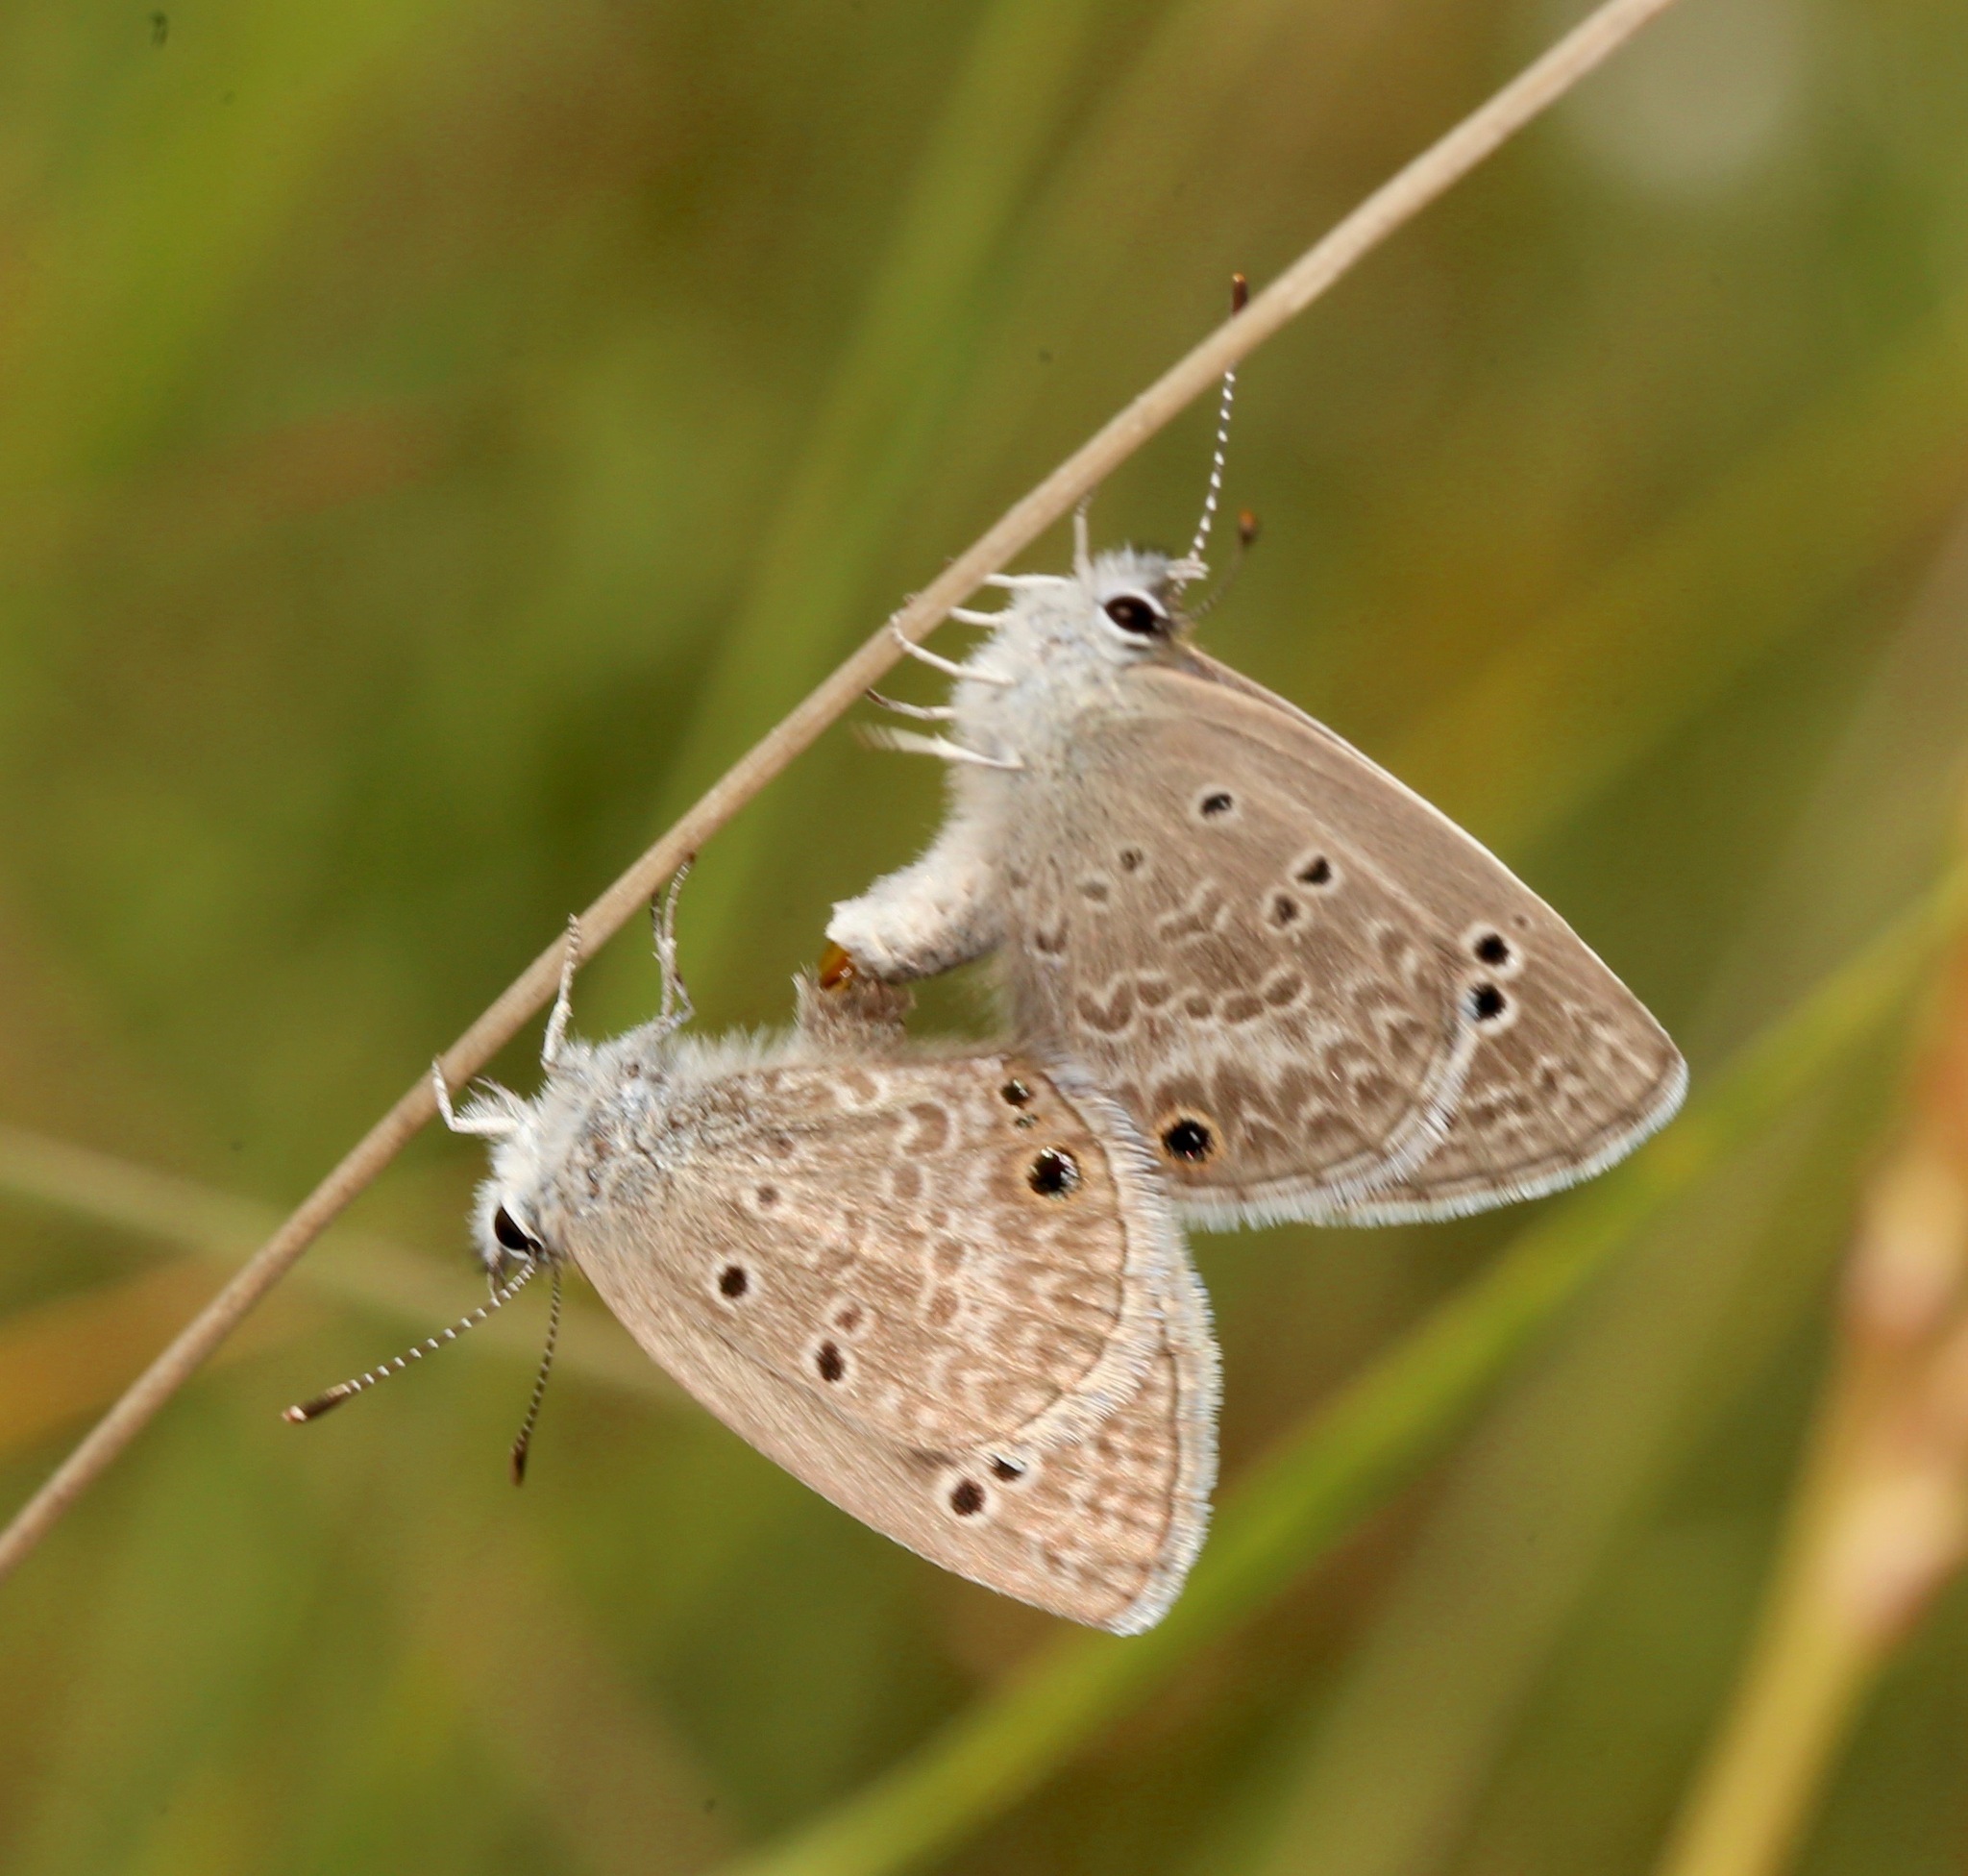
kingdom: Animalia
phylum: Arthropoda
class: Insecta
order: Lepidoptera
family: Lycaenidae
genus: Echinargus
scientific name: Echinargus isola
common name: Reakirt's blue
